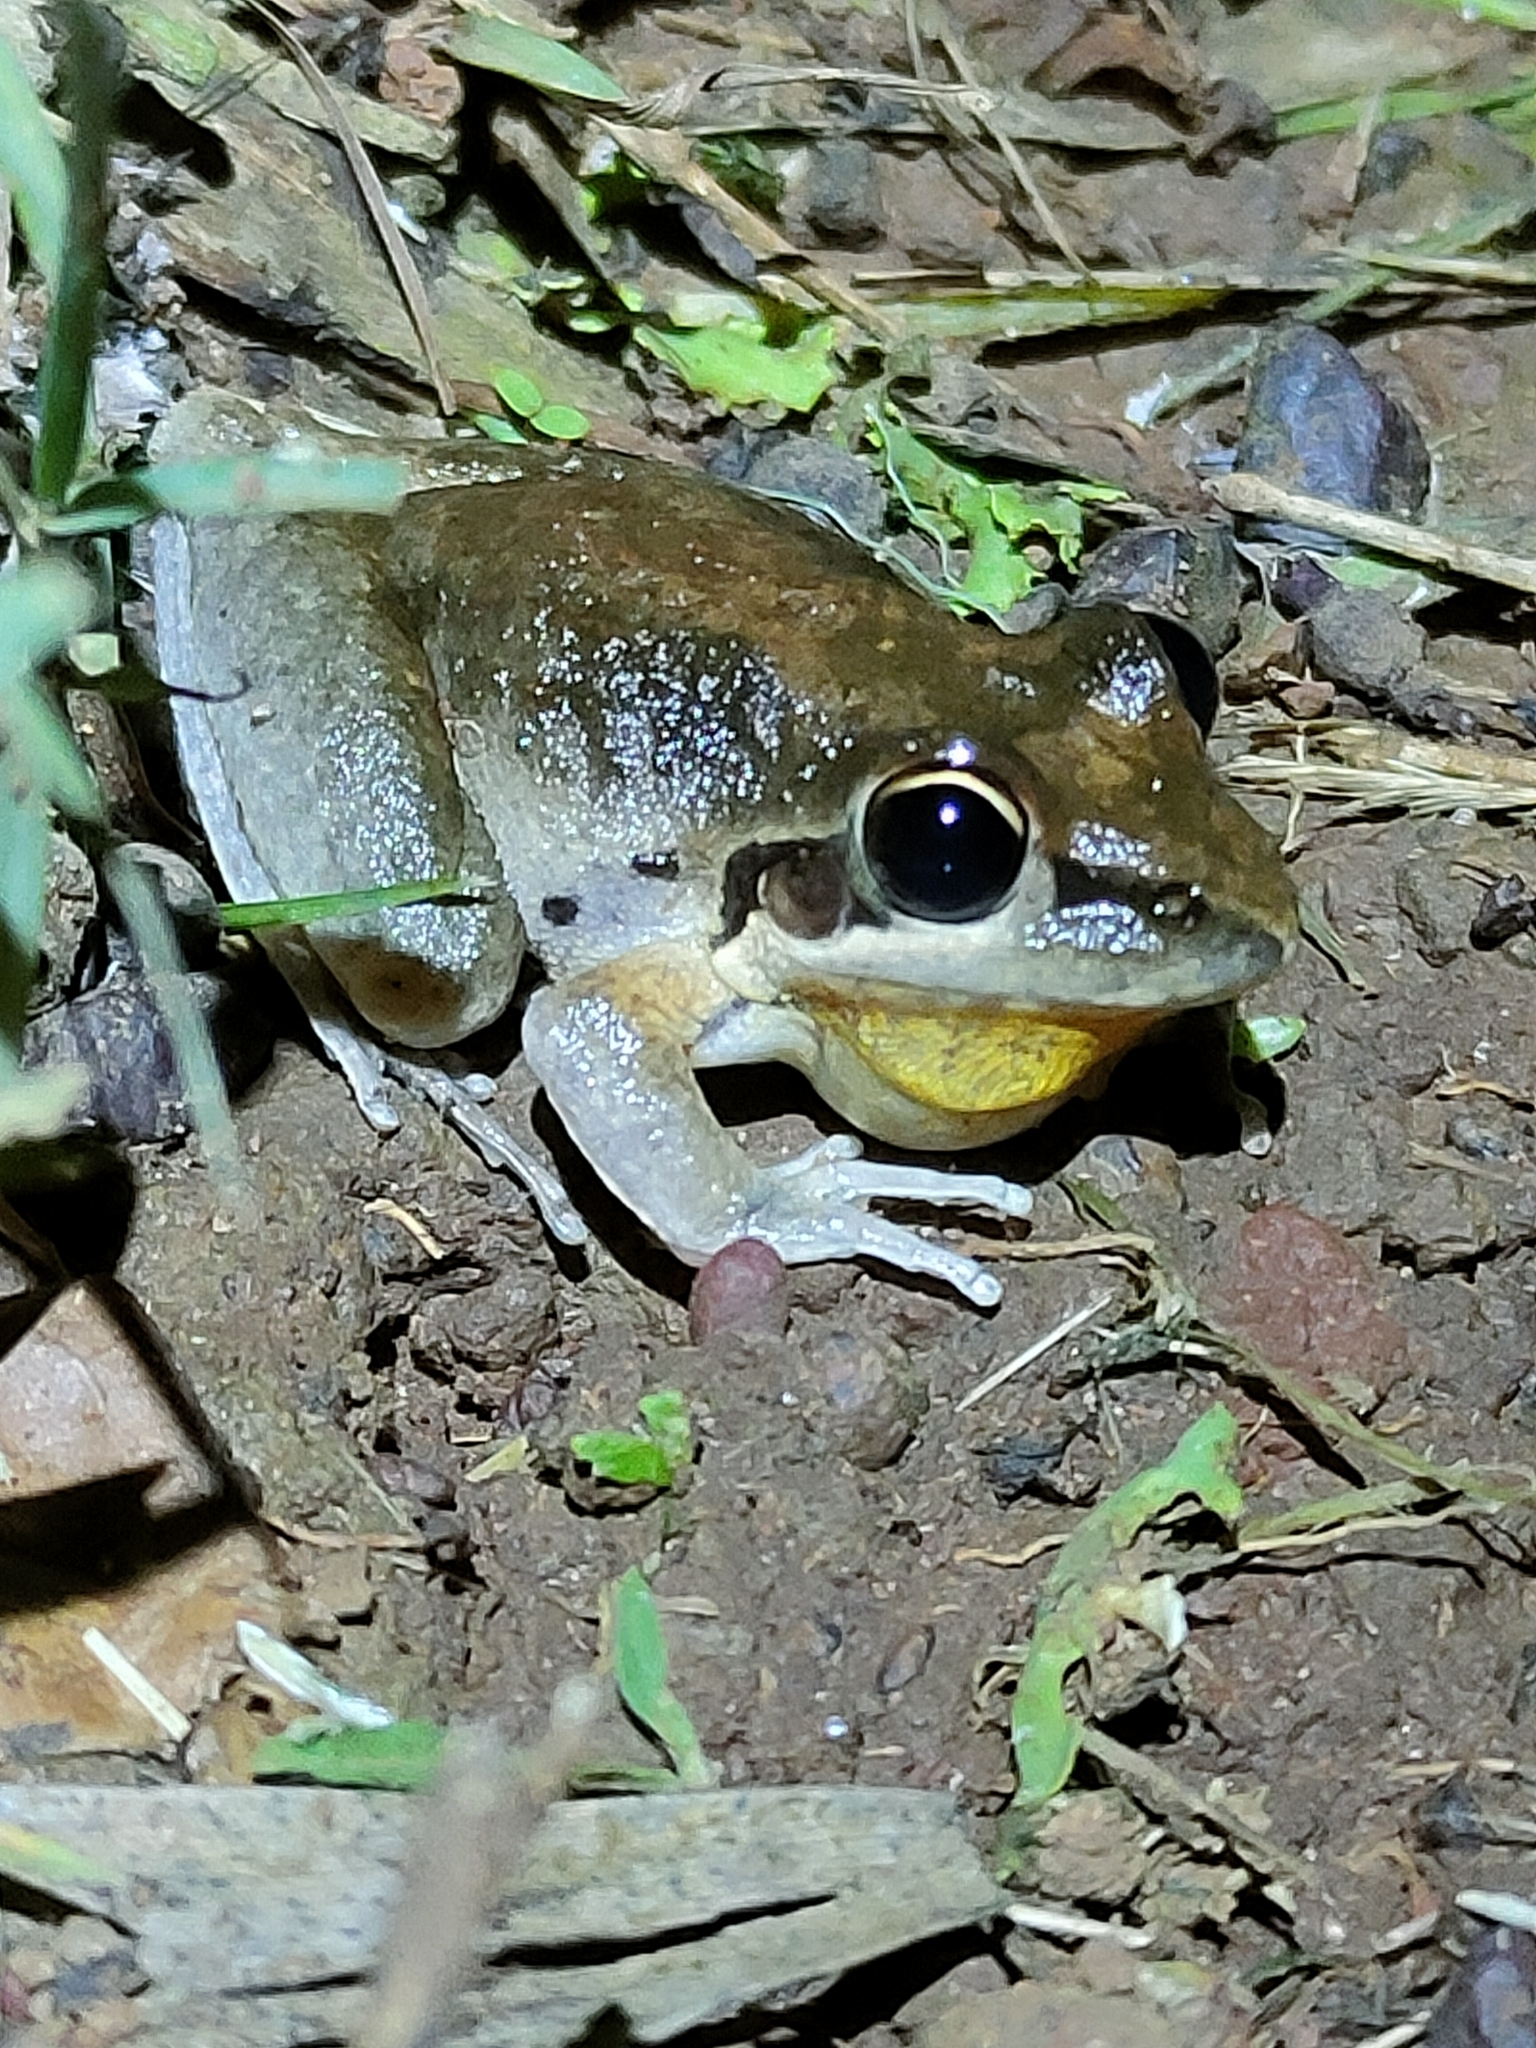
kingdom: Animalia
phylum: Chordata
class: Amphibia
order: Anura
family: Pelodryadidae
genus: Litoria
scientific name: Litoria latopalmata
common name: Broad-palmed rocket frog
